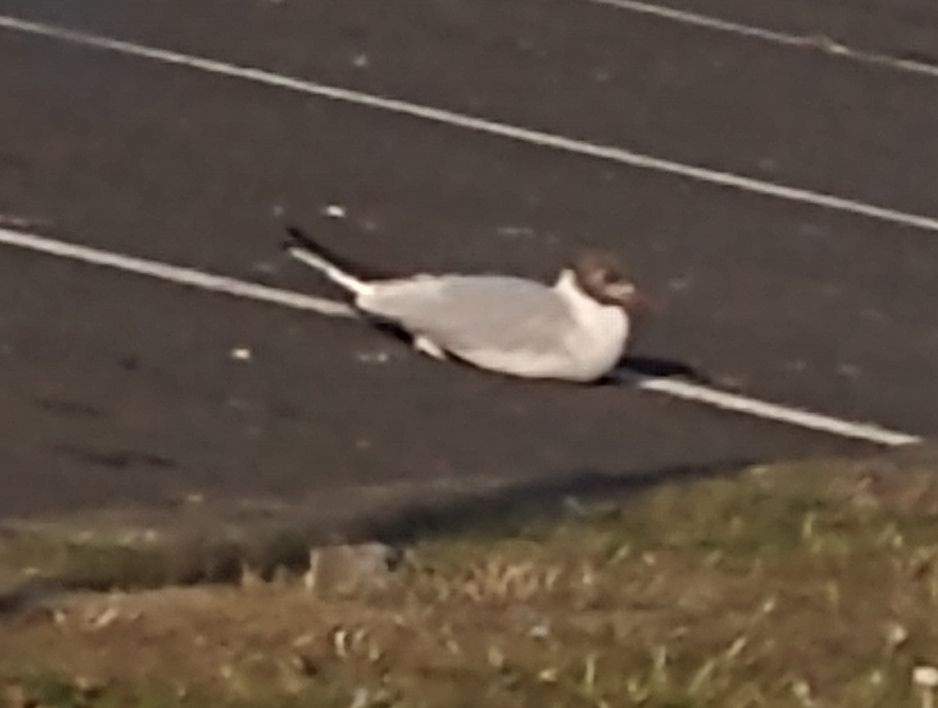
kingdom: Animalia
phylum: Chordata
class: Aves
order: Charadriiformes
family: Laridae
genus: Chroicocephalus
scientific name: Chroicocephalus ridibundus
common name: Black-headed gull
